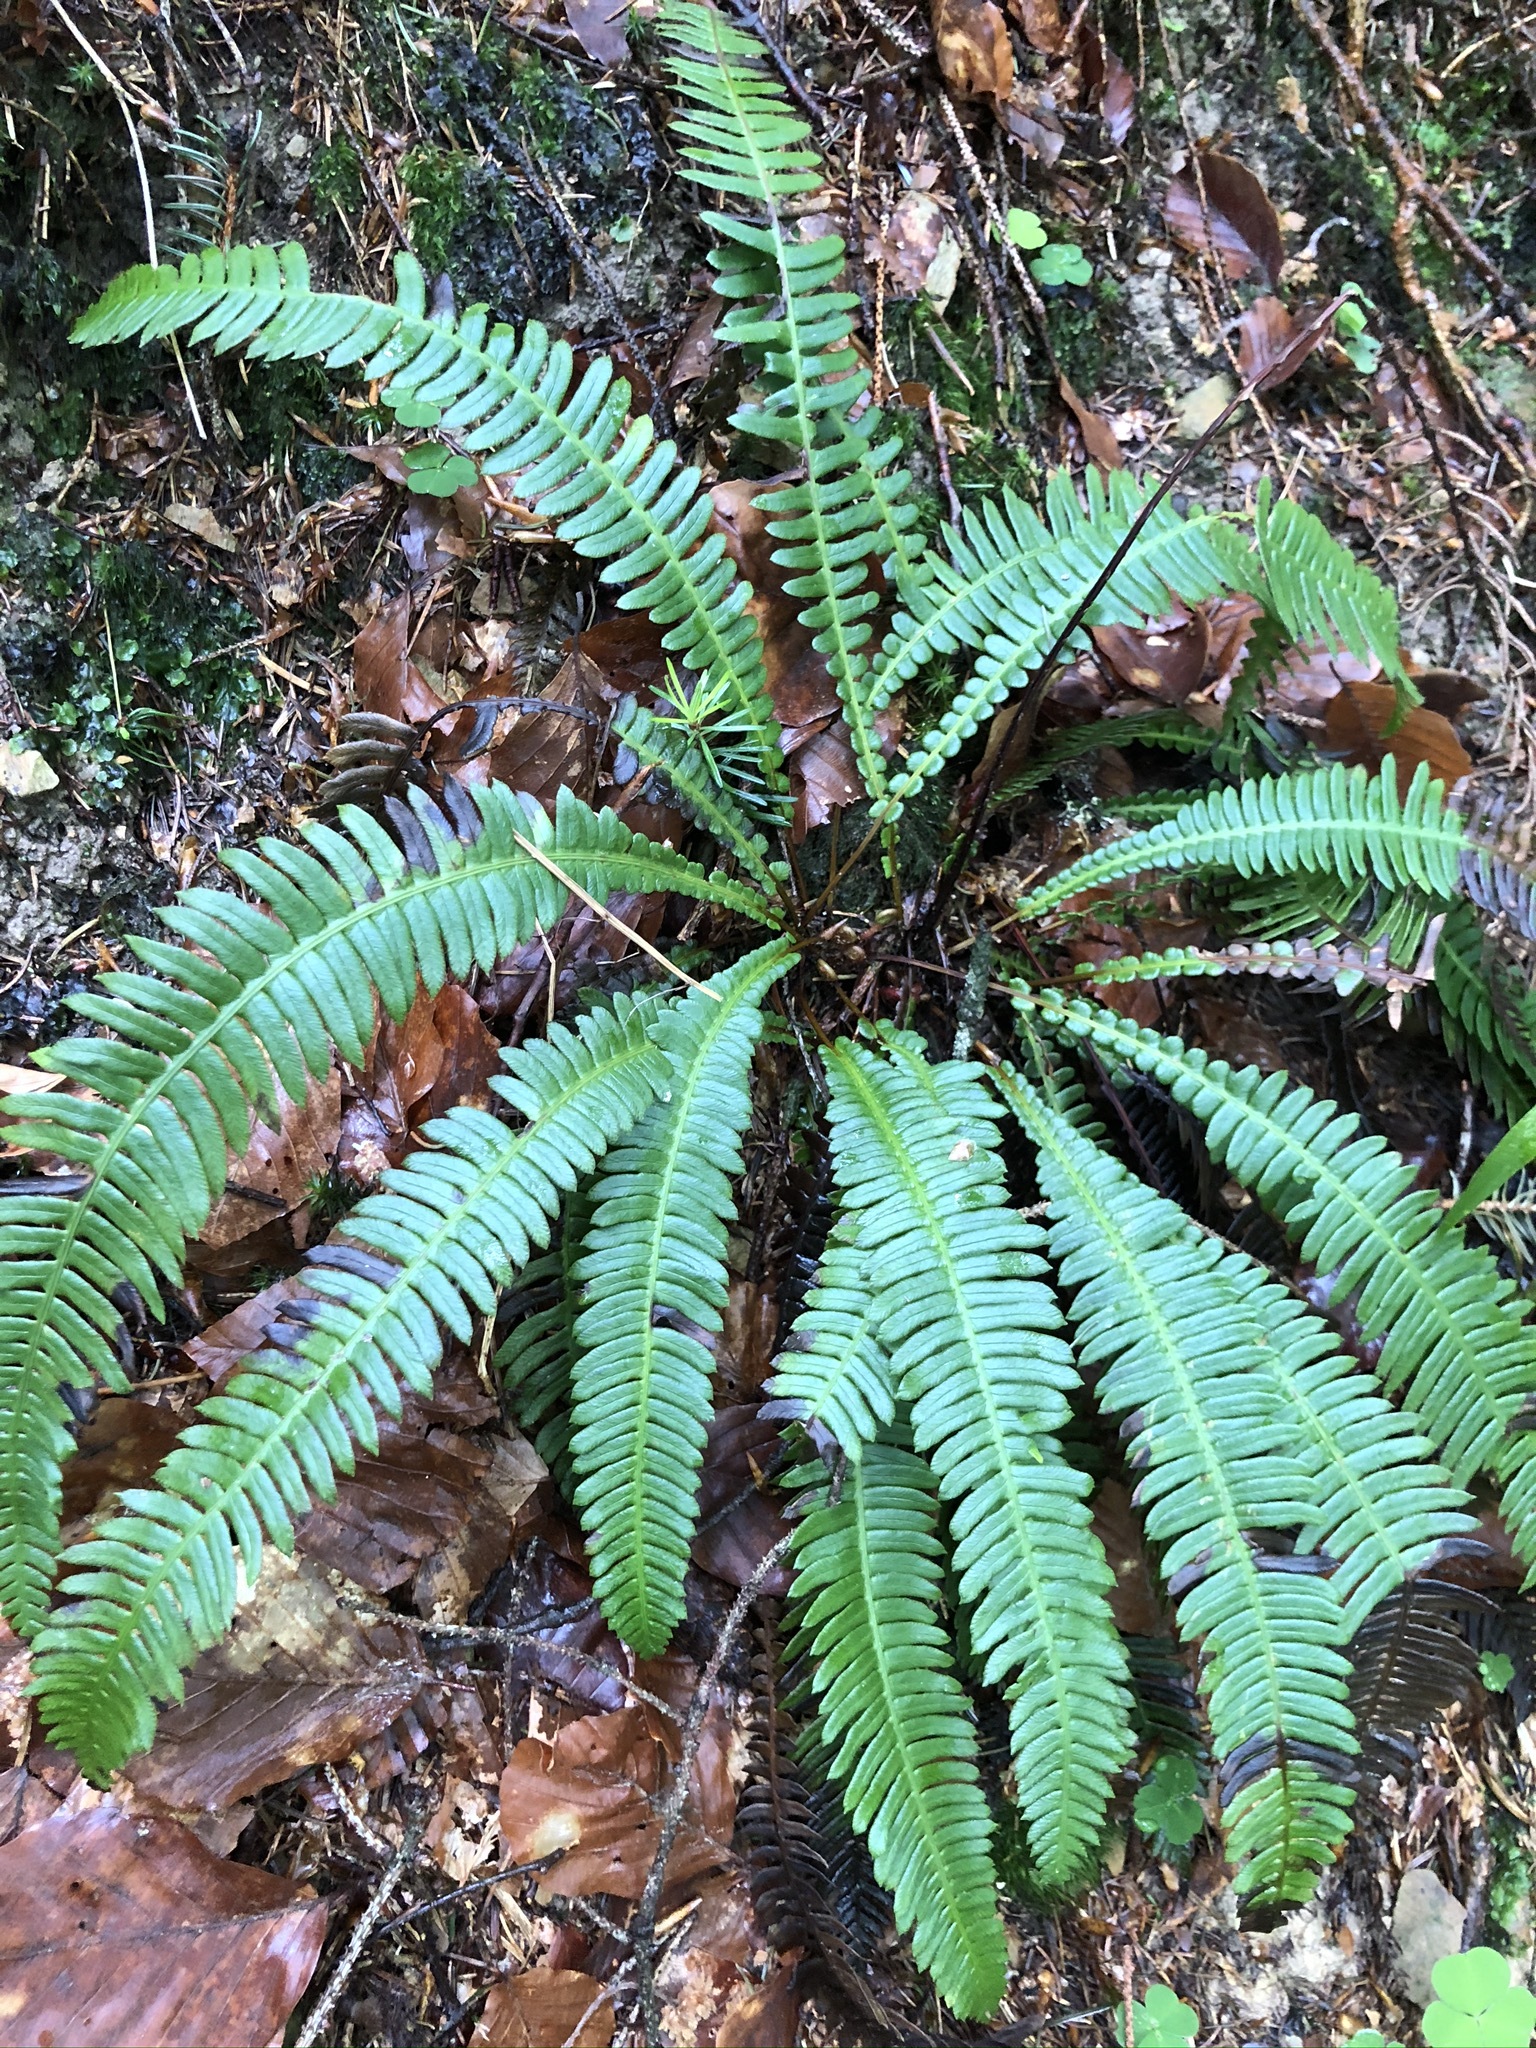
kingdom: Plantae
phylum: Tracheophyta
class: Polypodiopsida
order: Polypodiales
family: Blechnaceae
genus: Struthiopteris
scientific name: Struthiopteris spicant
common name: Deer fern
